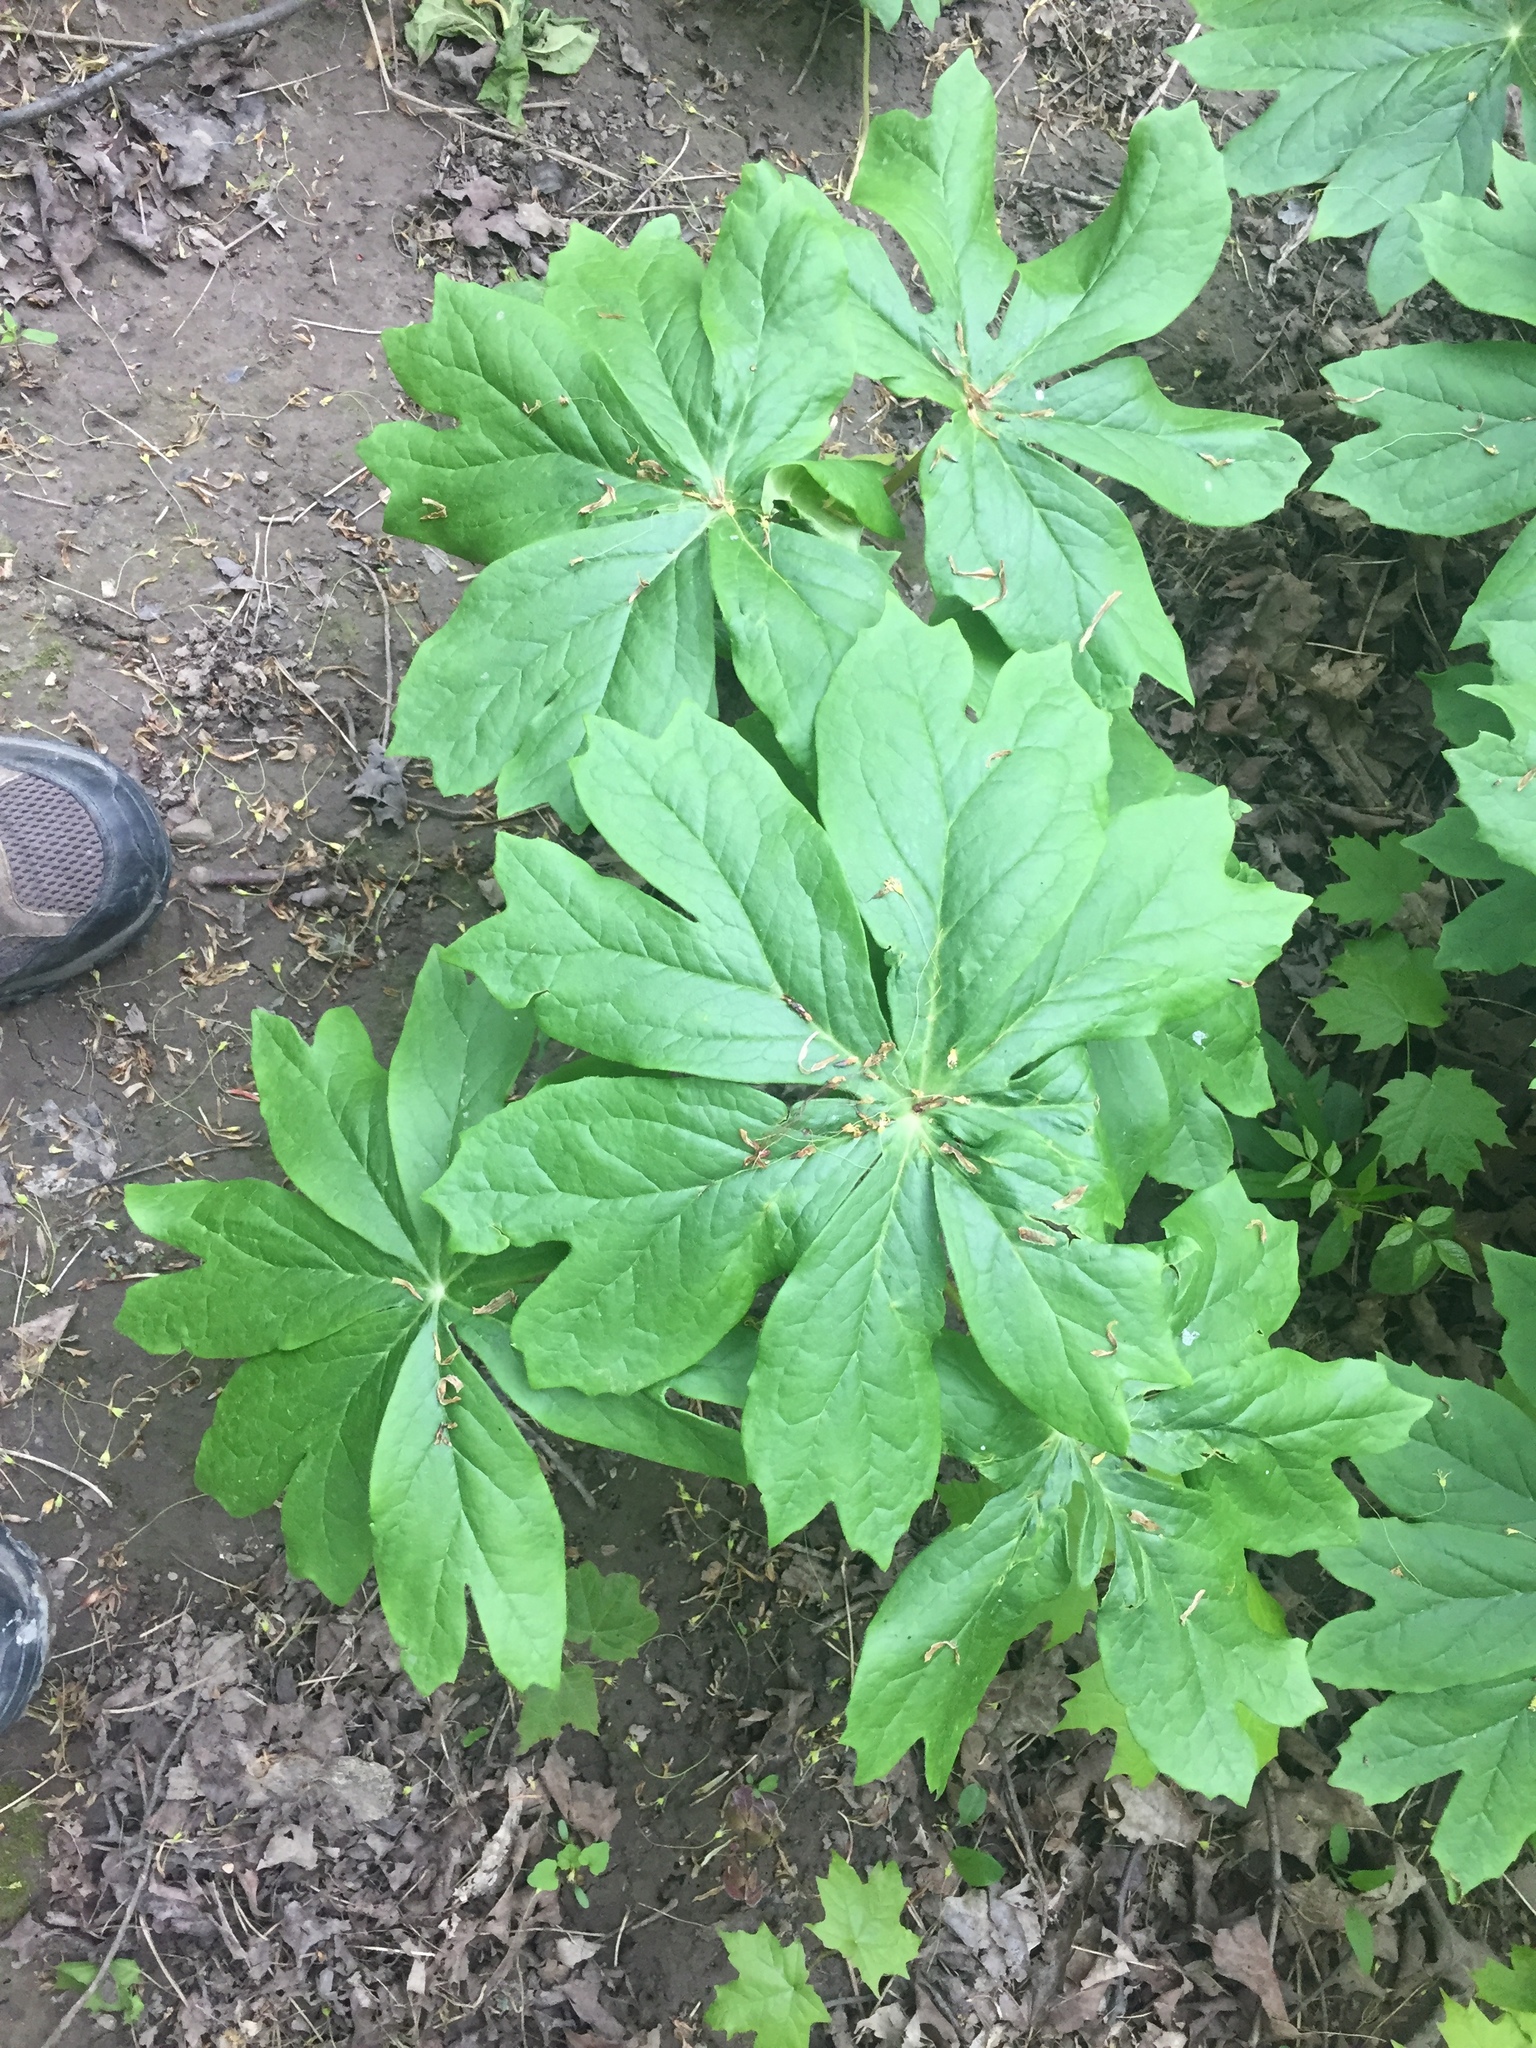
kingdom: Plantae
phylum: Tracheophyta
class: Magnoliopsida
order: Ranunculales
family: Berberidaceae
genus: Podophyllum
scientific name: Podophyllum peltatum
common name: Wild mandrake
